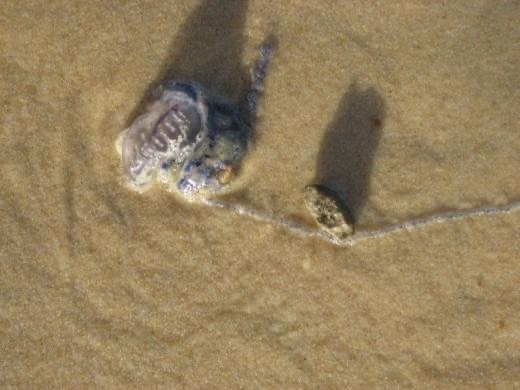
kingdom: Animalia
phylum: Cnidaria
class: Hydrozoa
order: Siphonophorae
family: Physaliidae
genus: Physalia
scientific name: Physalia physalis
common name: Portuguese man-of-war
